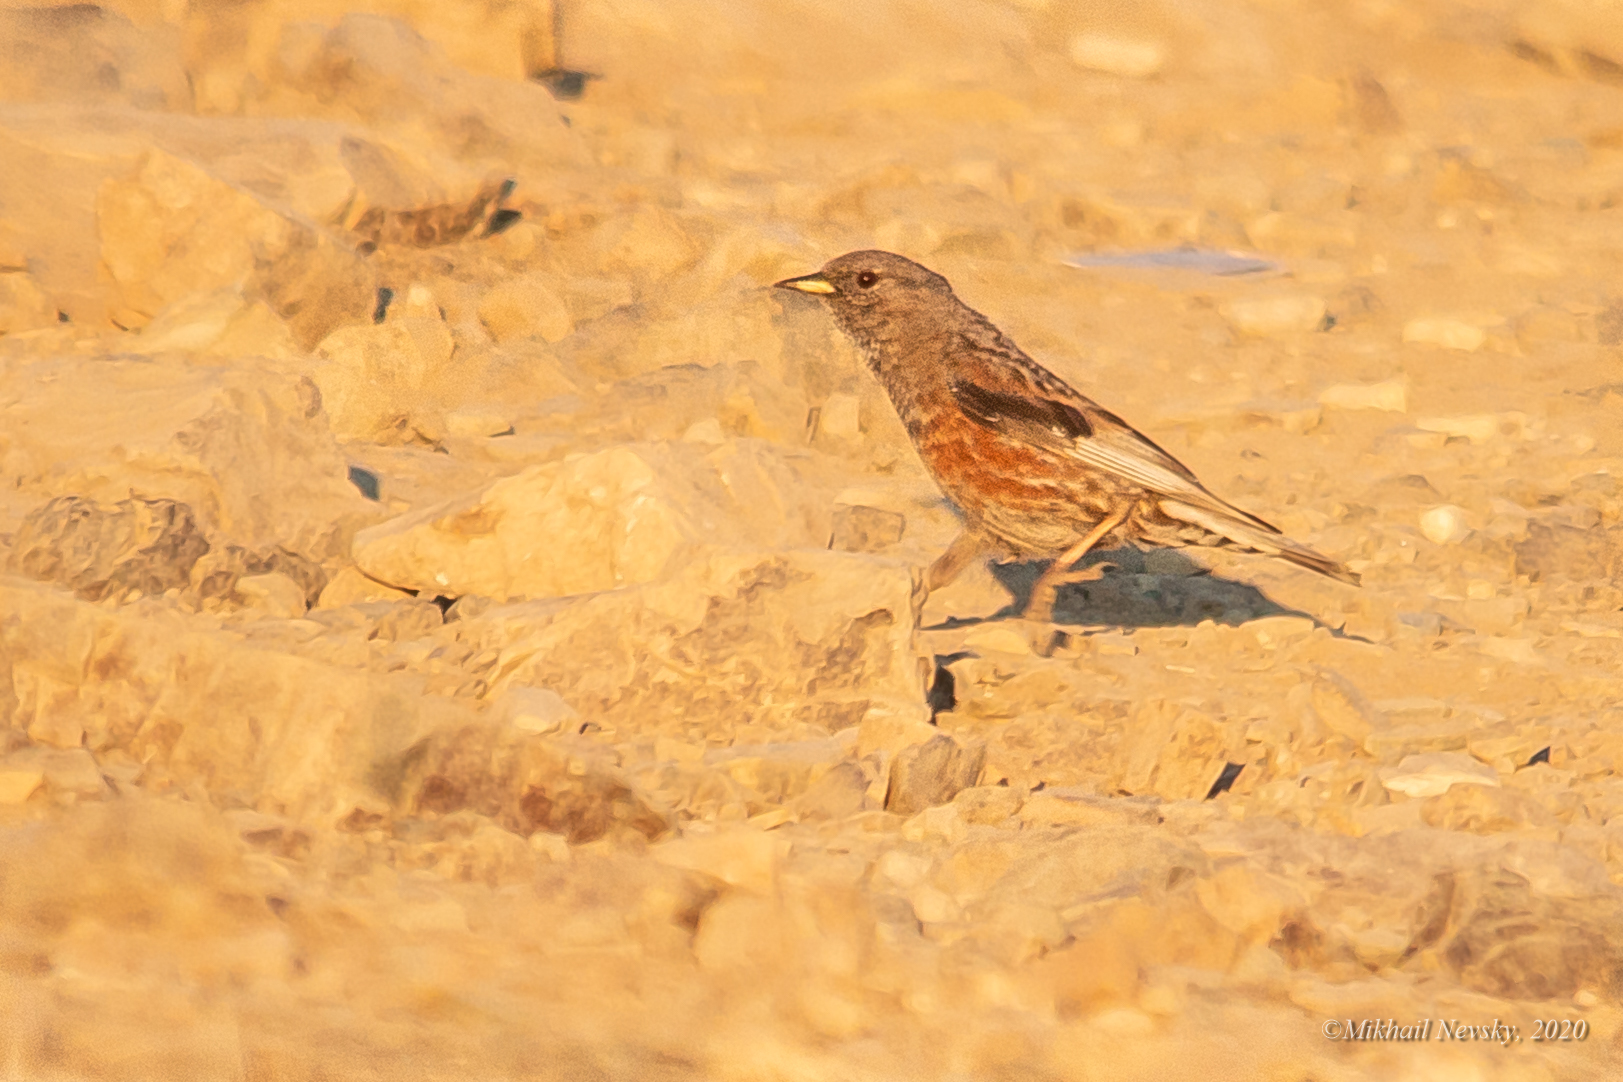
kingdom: Animalia
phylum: Chordata
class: Aves
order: Passeriformes
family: Prunellidae
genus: Prunella
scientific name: Prunella collaris
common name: Alpine accentor
